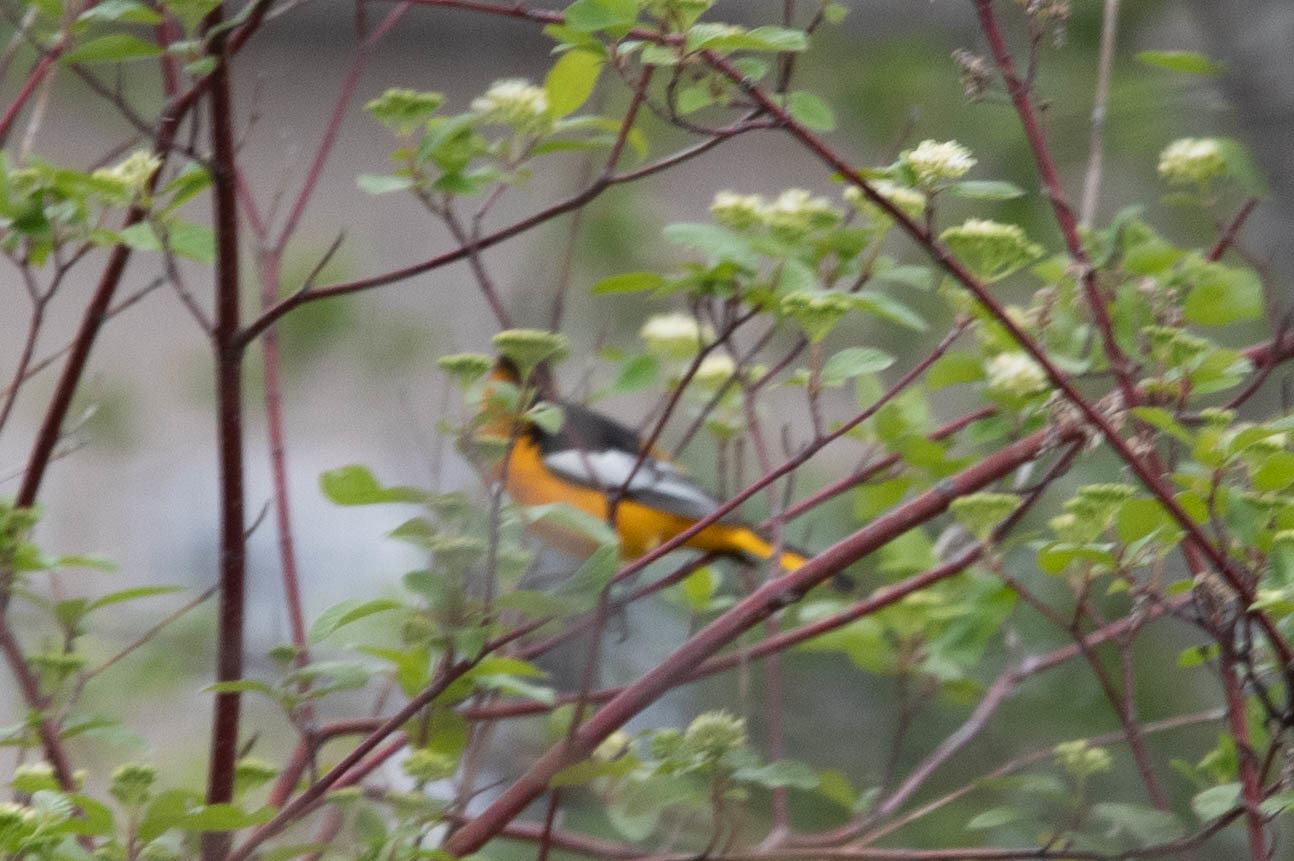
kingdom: Animalia
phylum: Chordata
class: Aves
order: Passeriformes
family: Icteridae
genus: Icterus
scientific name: Icterus bullockii
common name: Bullock's oriole
